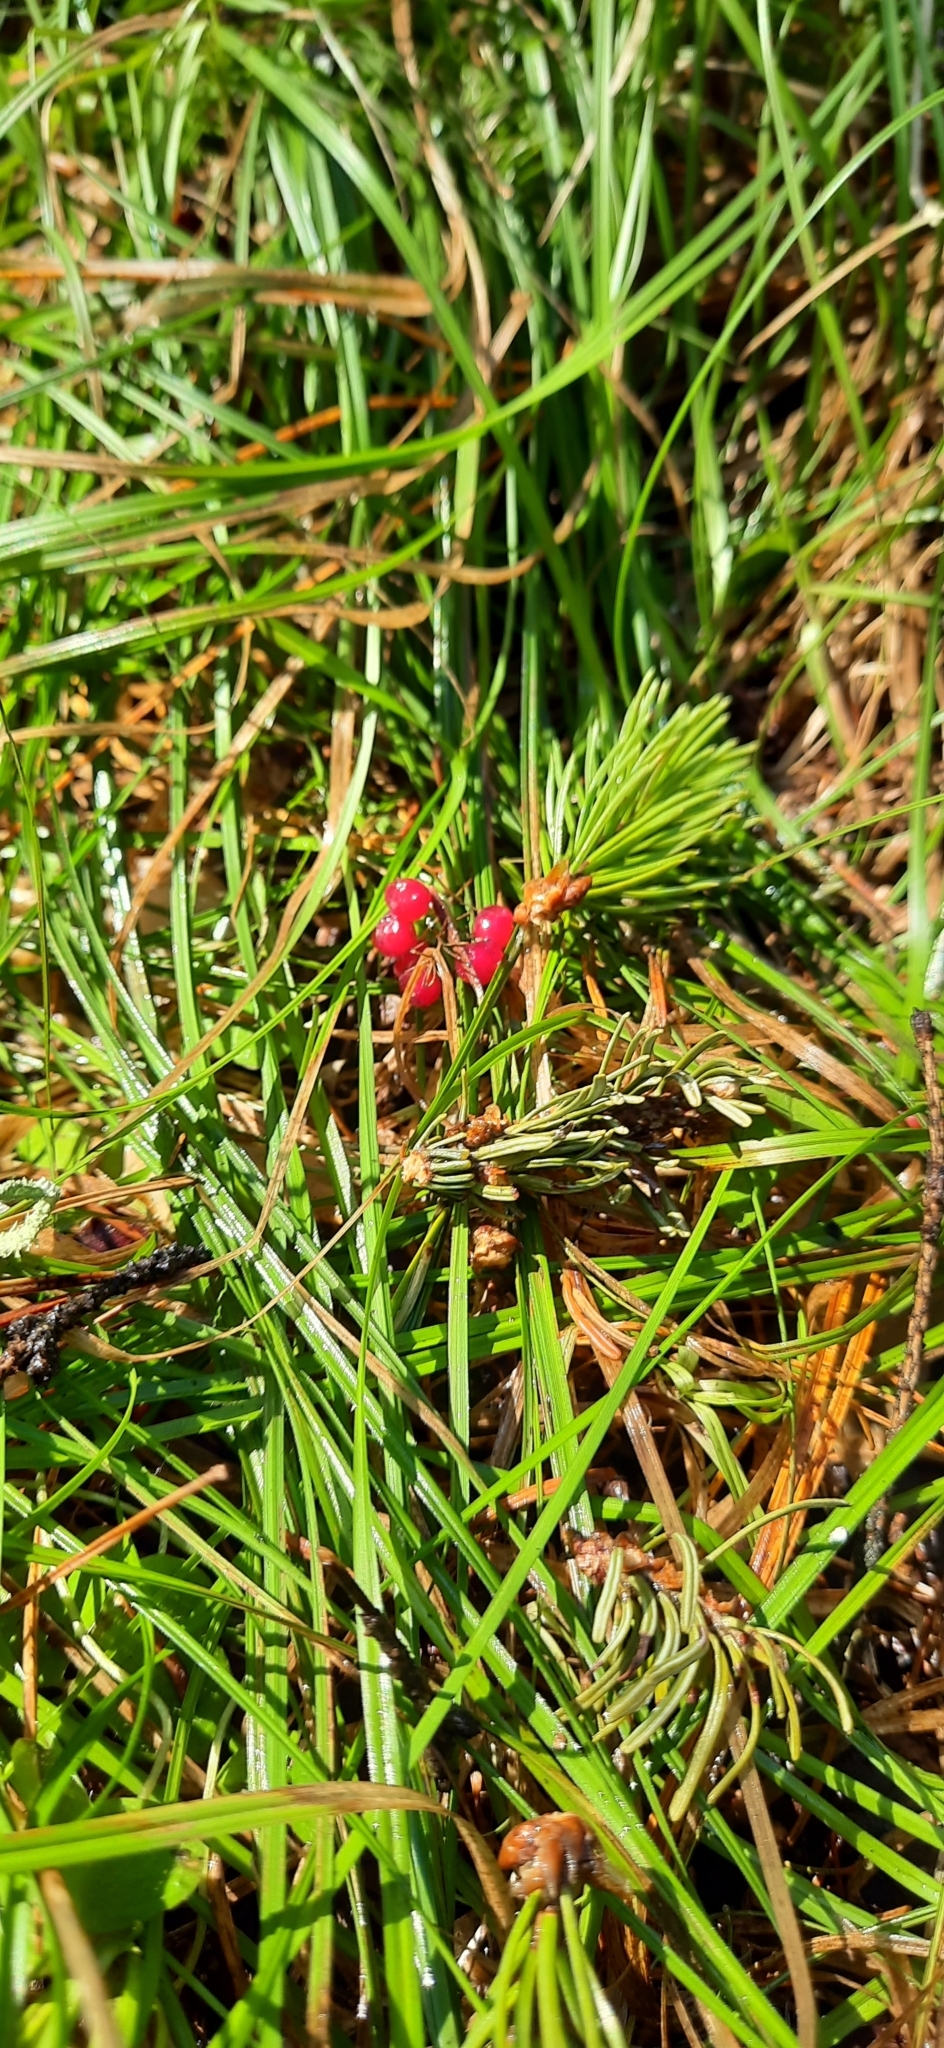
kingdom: Plantae
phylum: Tracheophyta
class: Liliopsida
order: Asparagales
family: Asparagaceae
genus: Maianthemum
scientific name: Maianthemum bifolium
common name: May lily
